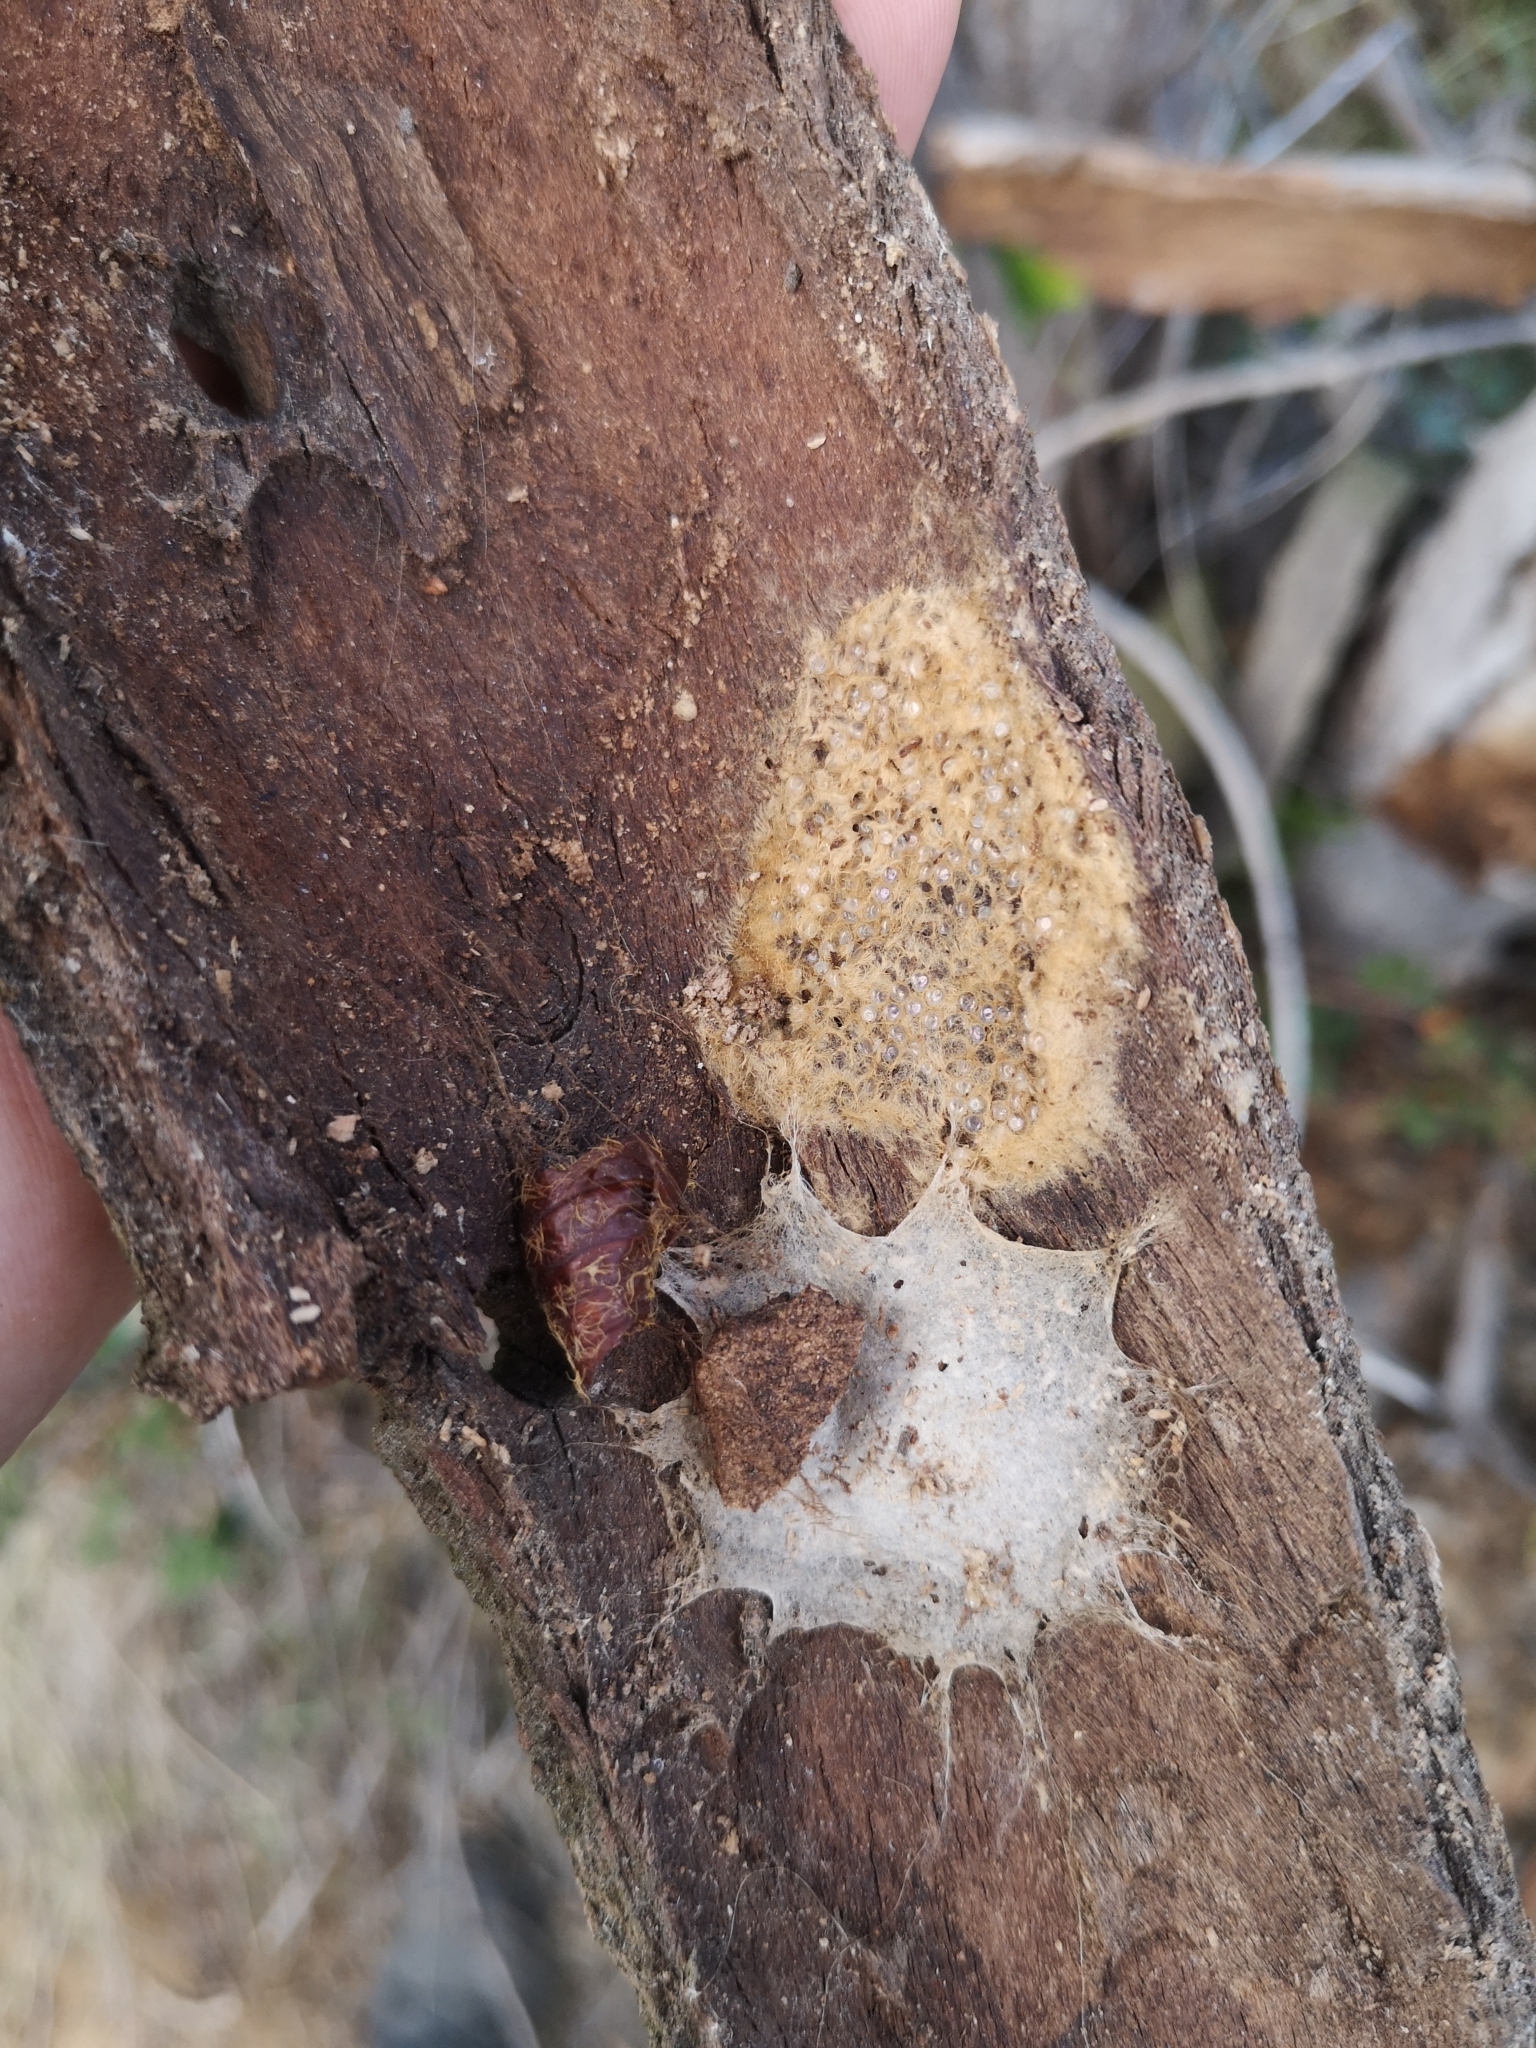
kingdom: Animalia
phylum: Arthropoda
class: Arachnida
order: Araneae
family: Oecobiidae
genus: Uroctea
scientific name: Uroctea durandi
